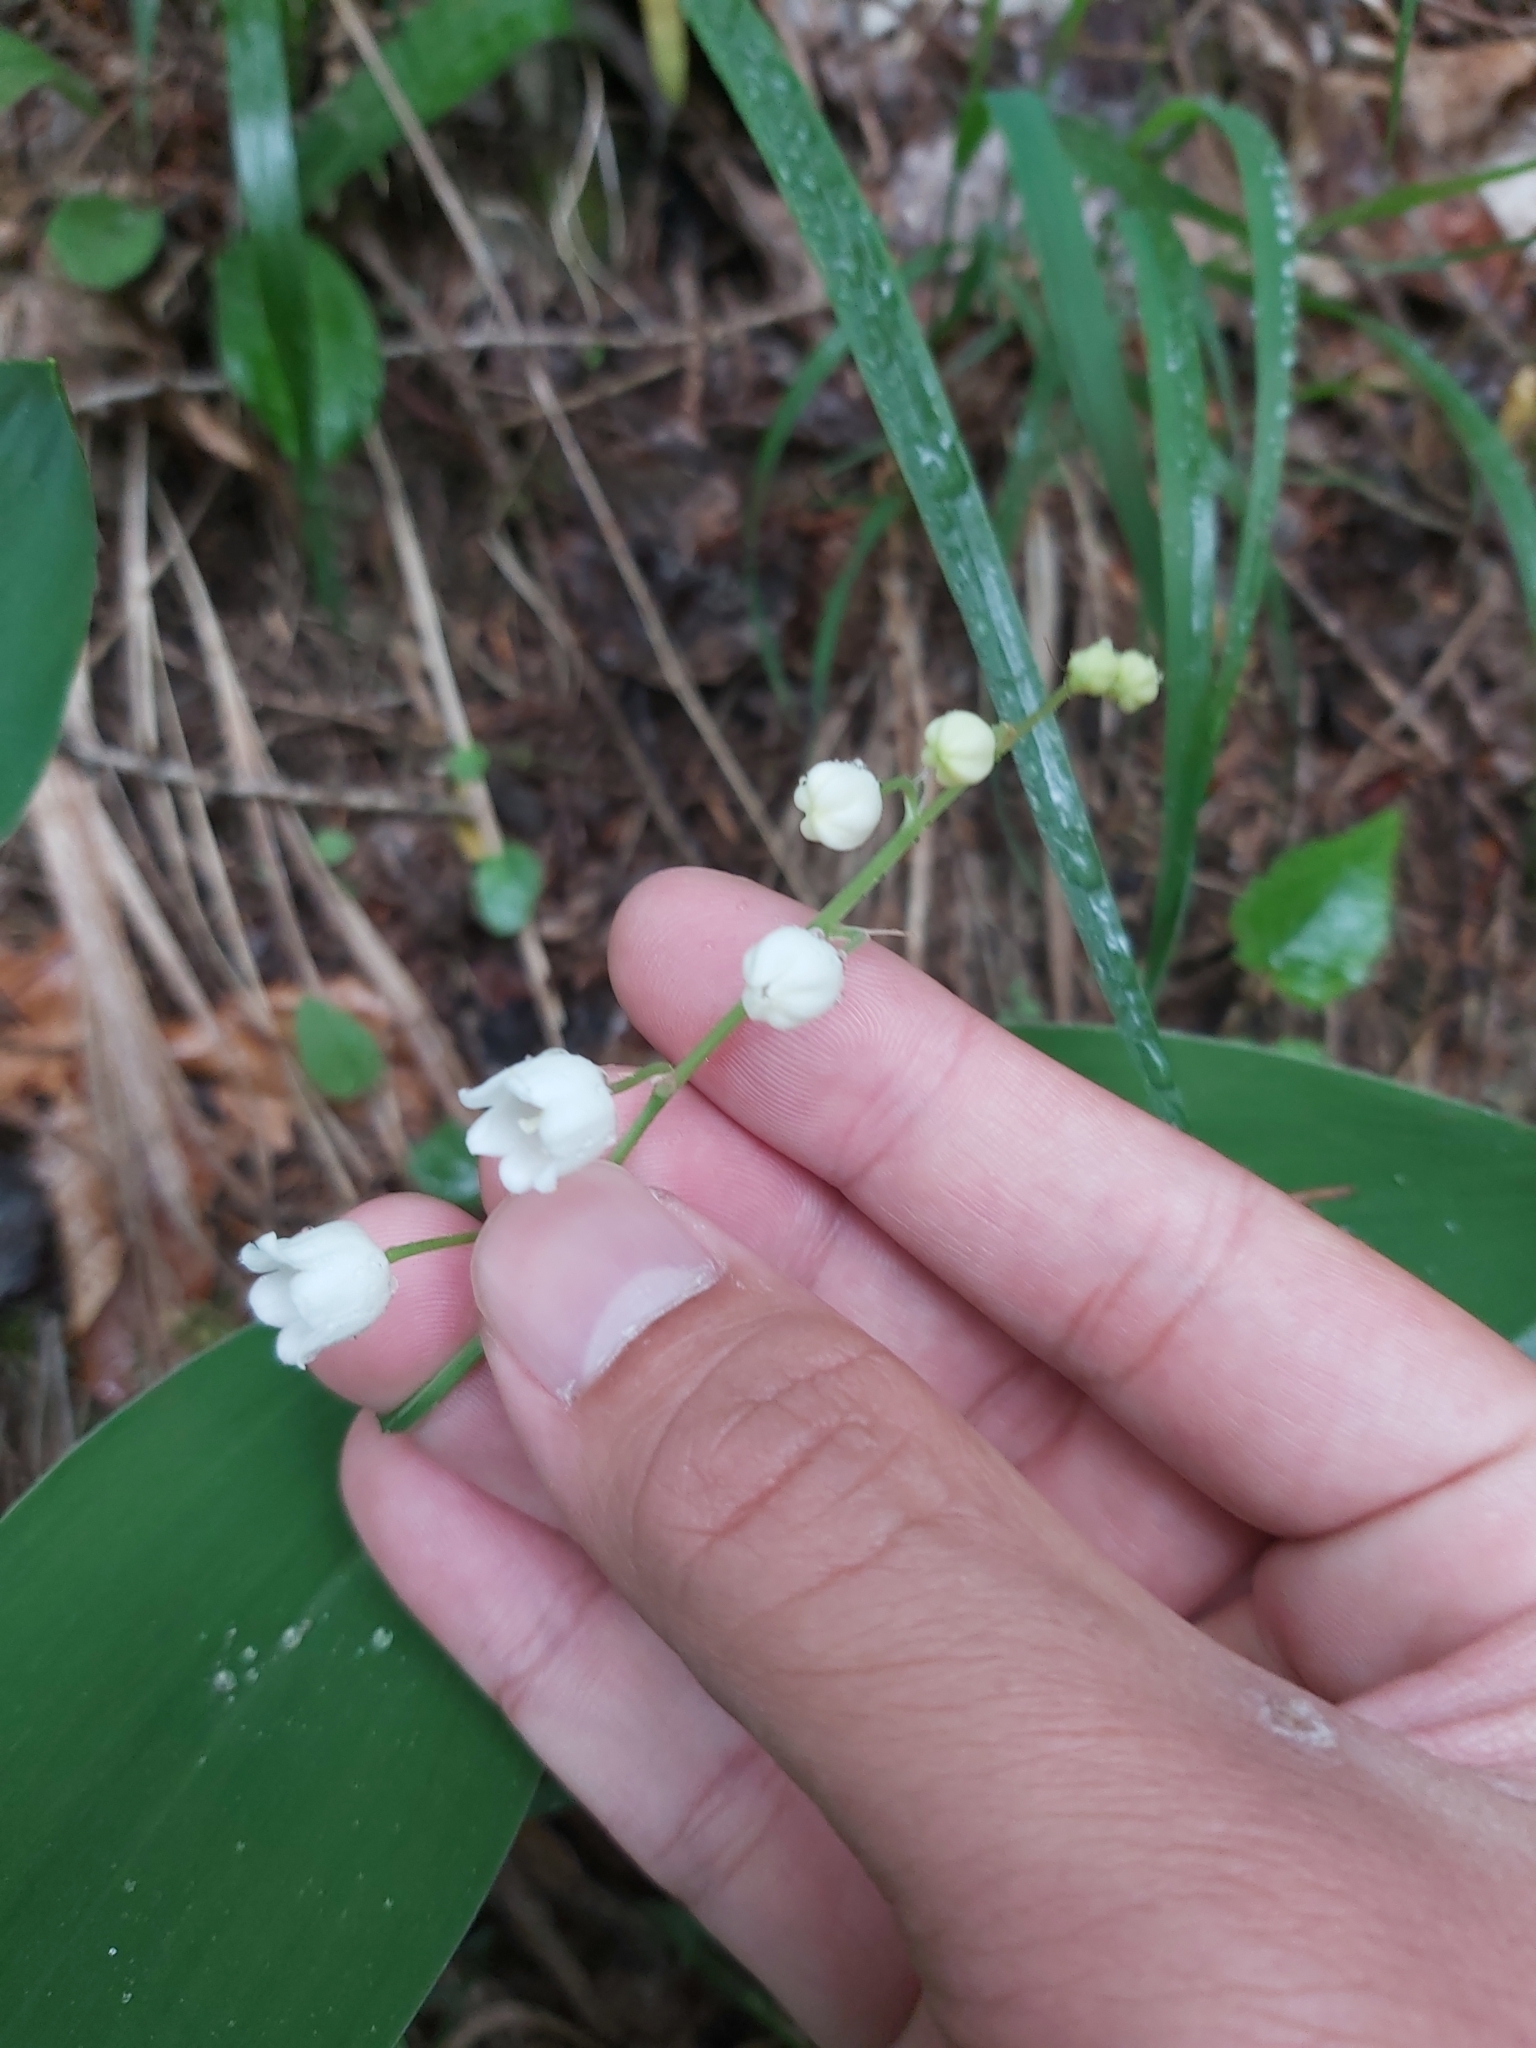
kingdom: Plantae
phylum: Tracheophyta
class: Liliopsida
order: Asparagales
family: Asparagaceae
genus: Convallaria
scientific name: Convallaria majalis
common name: Lily-of-the-valley
